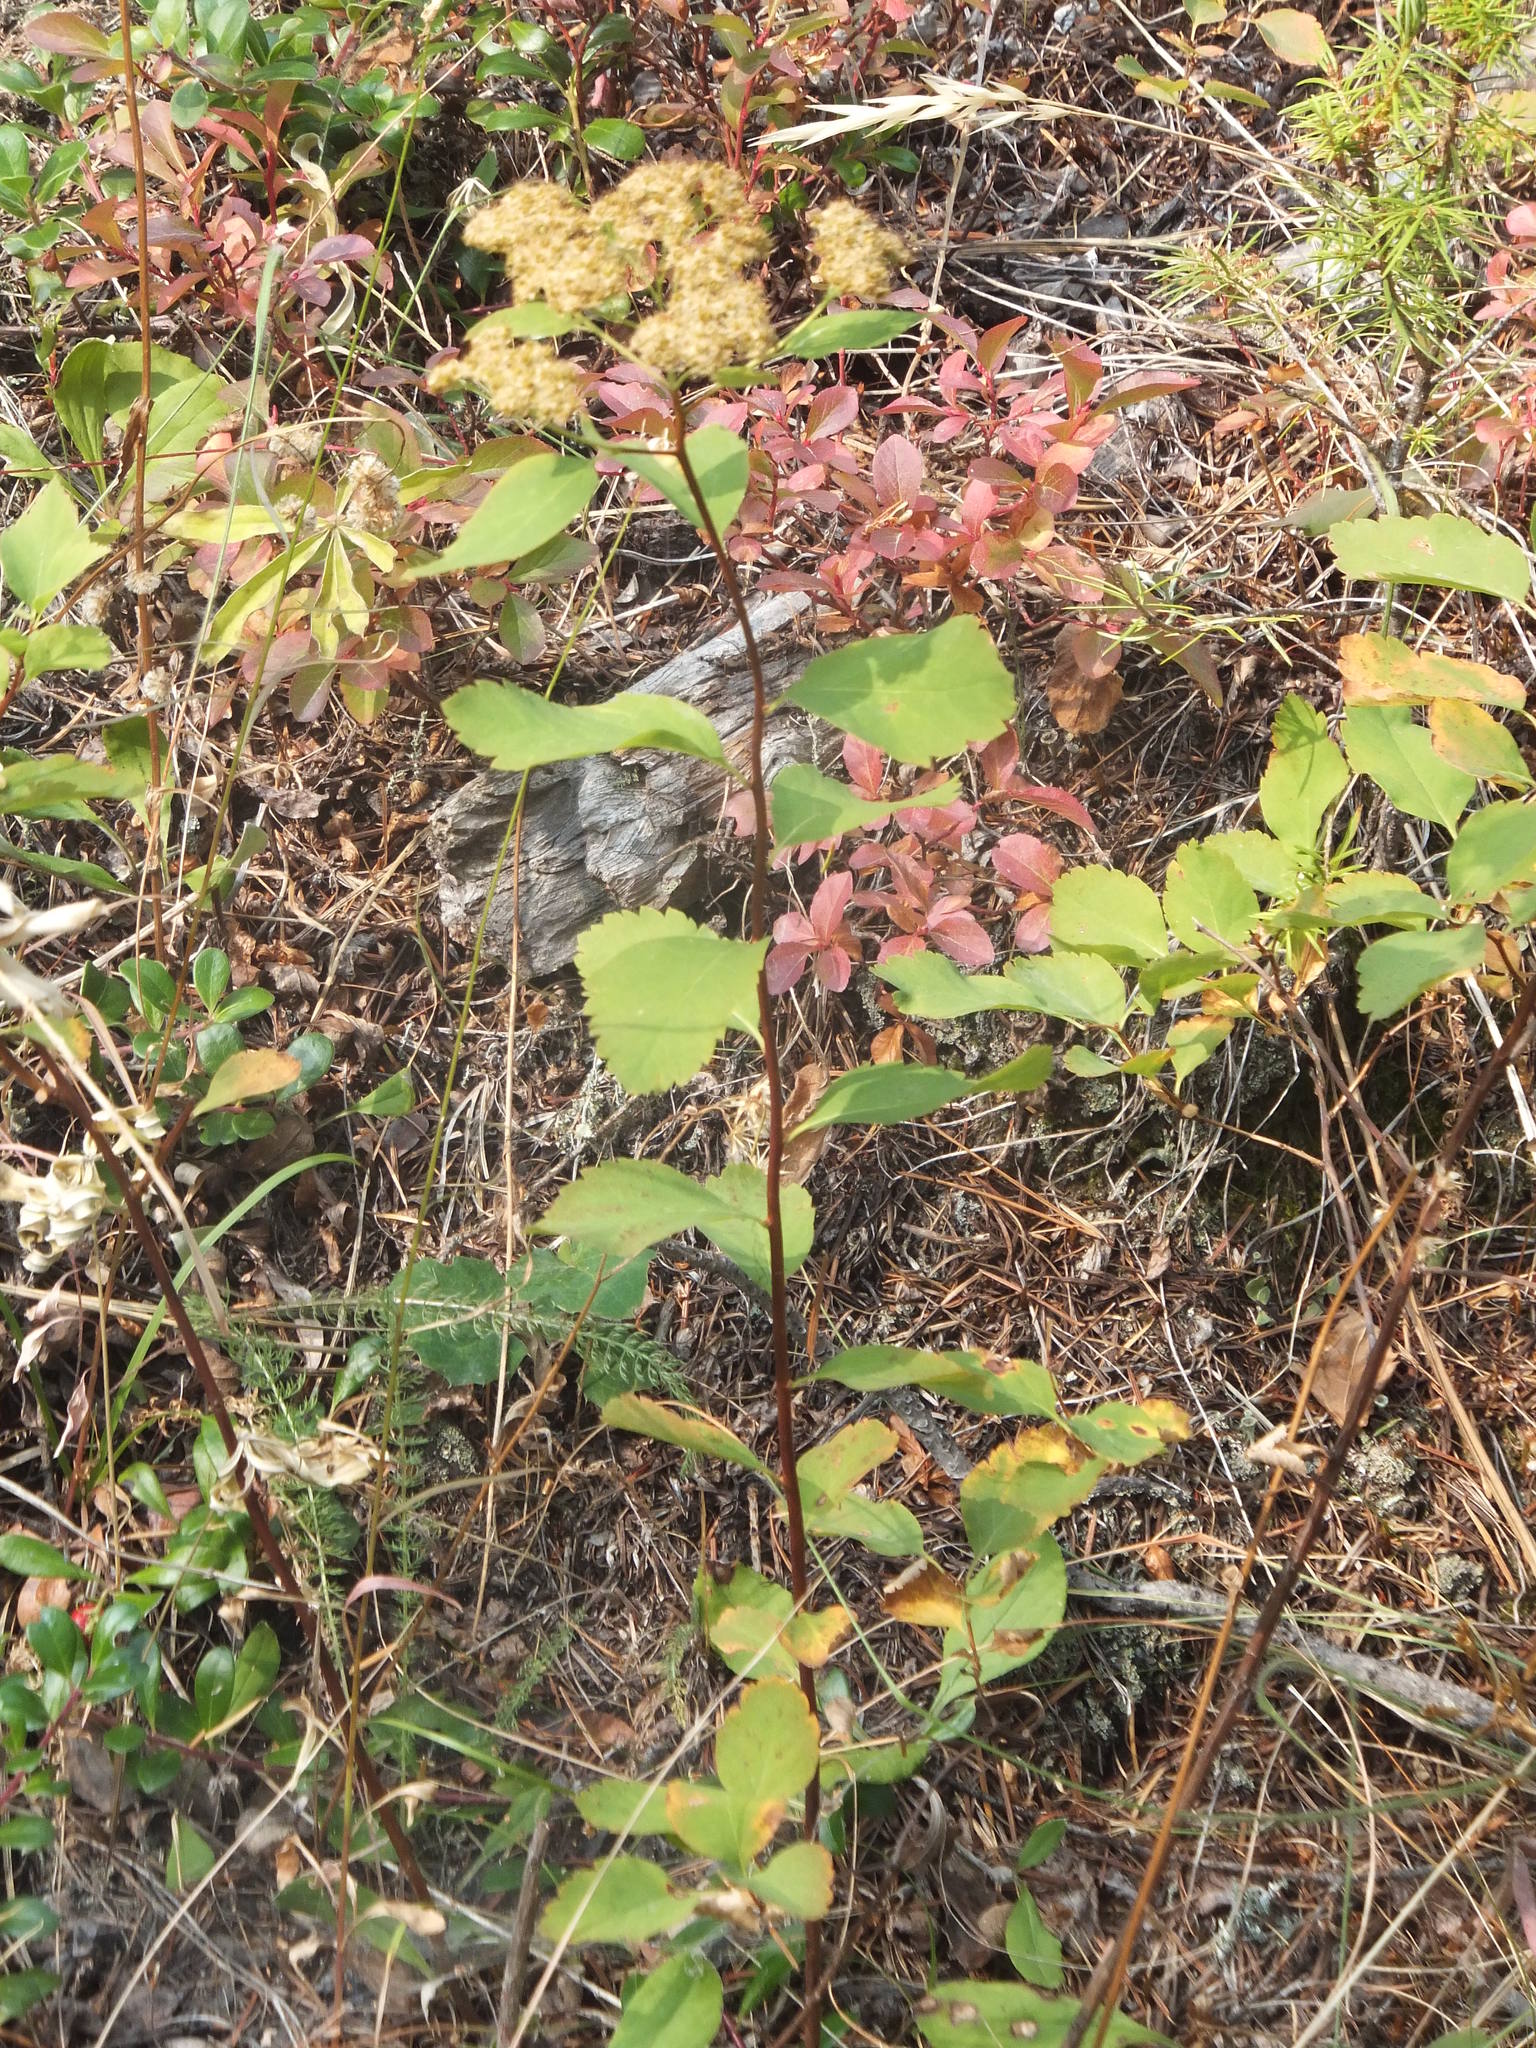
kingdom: Plantae
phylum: Tracheophyta
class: Magnoliopsida
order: Rosales
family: Rosaceae
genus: Spiraea
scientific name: Spiraea lucida
